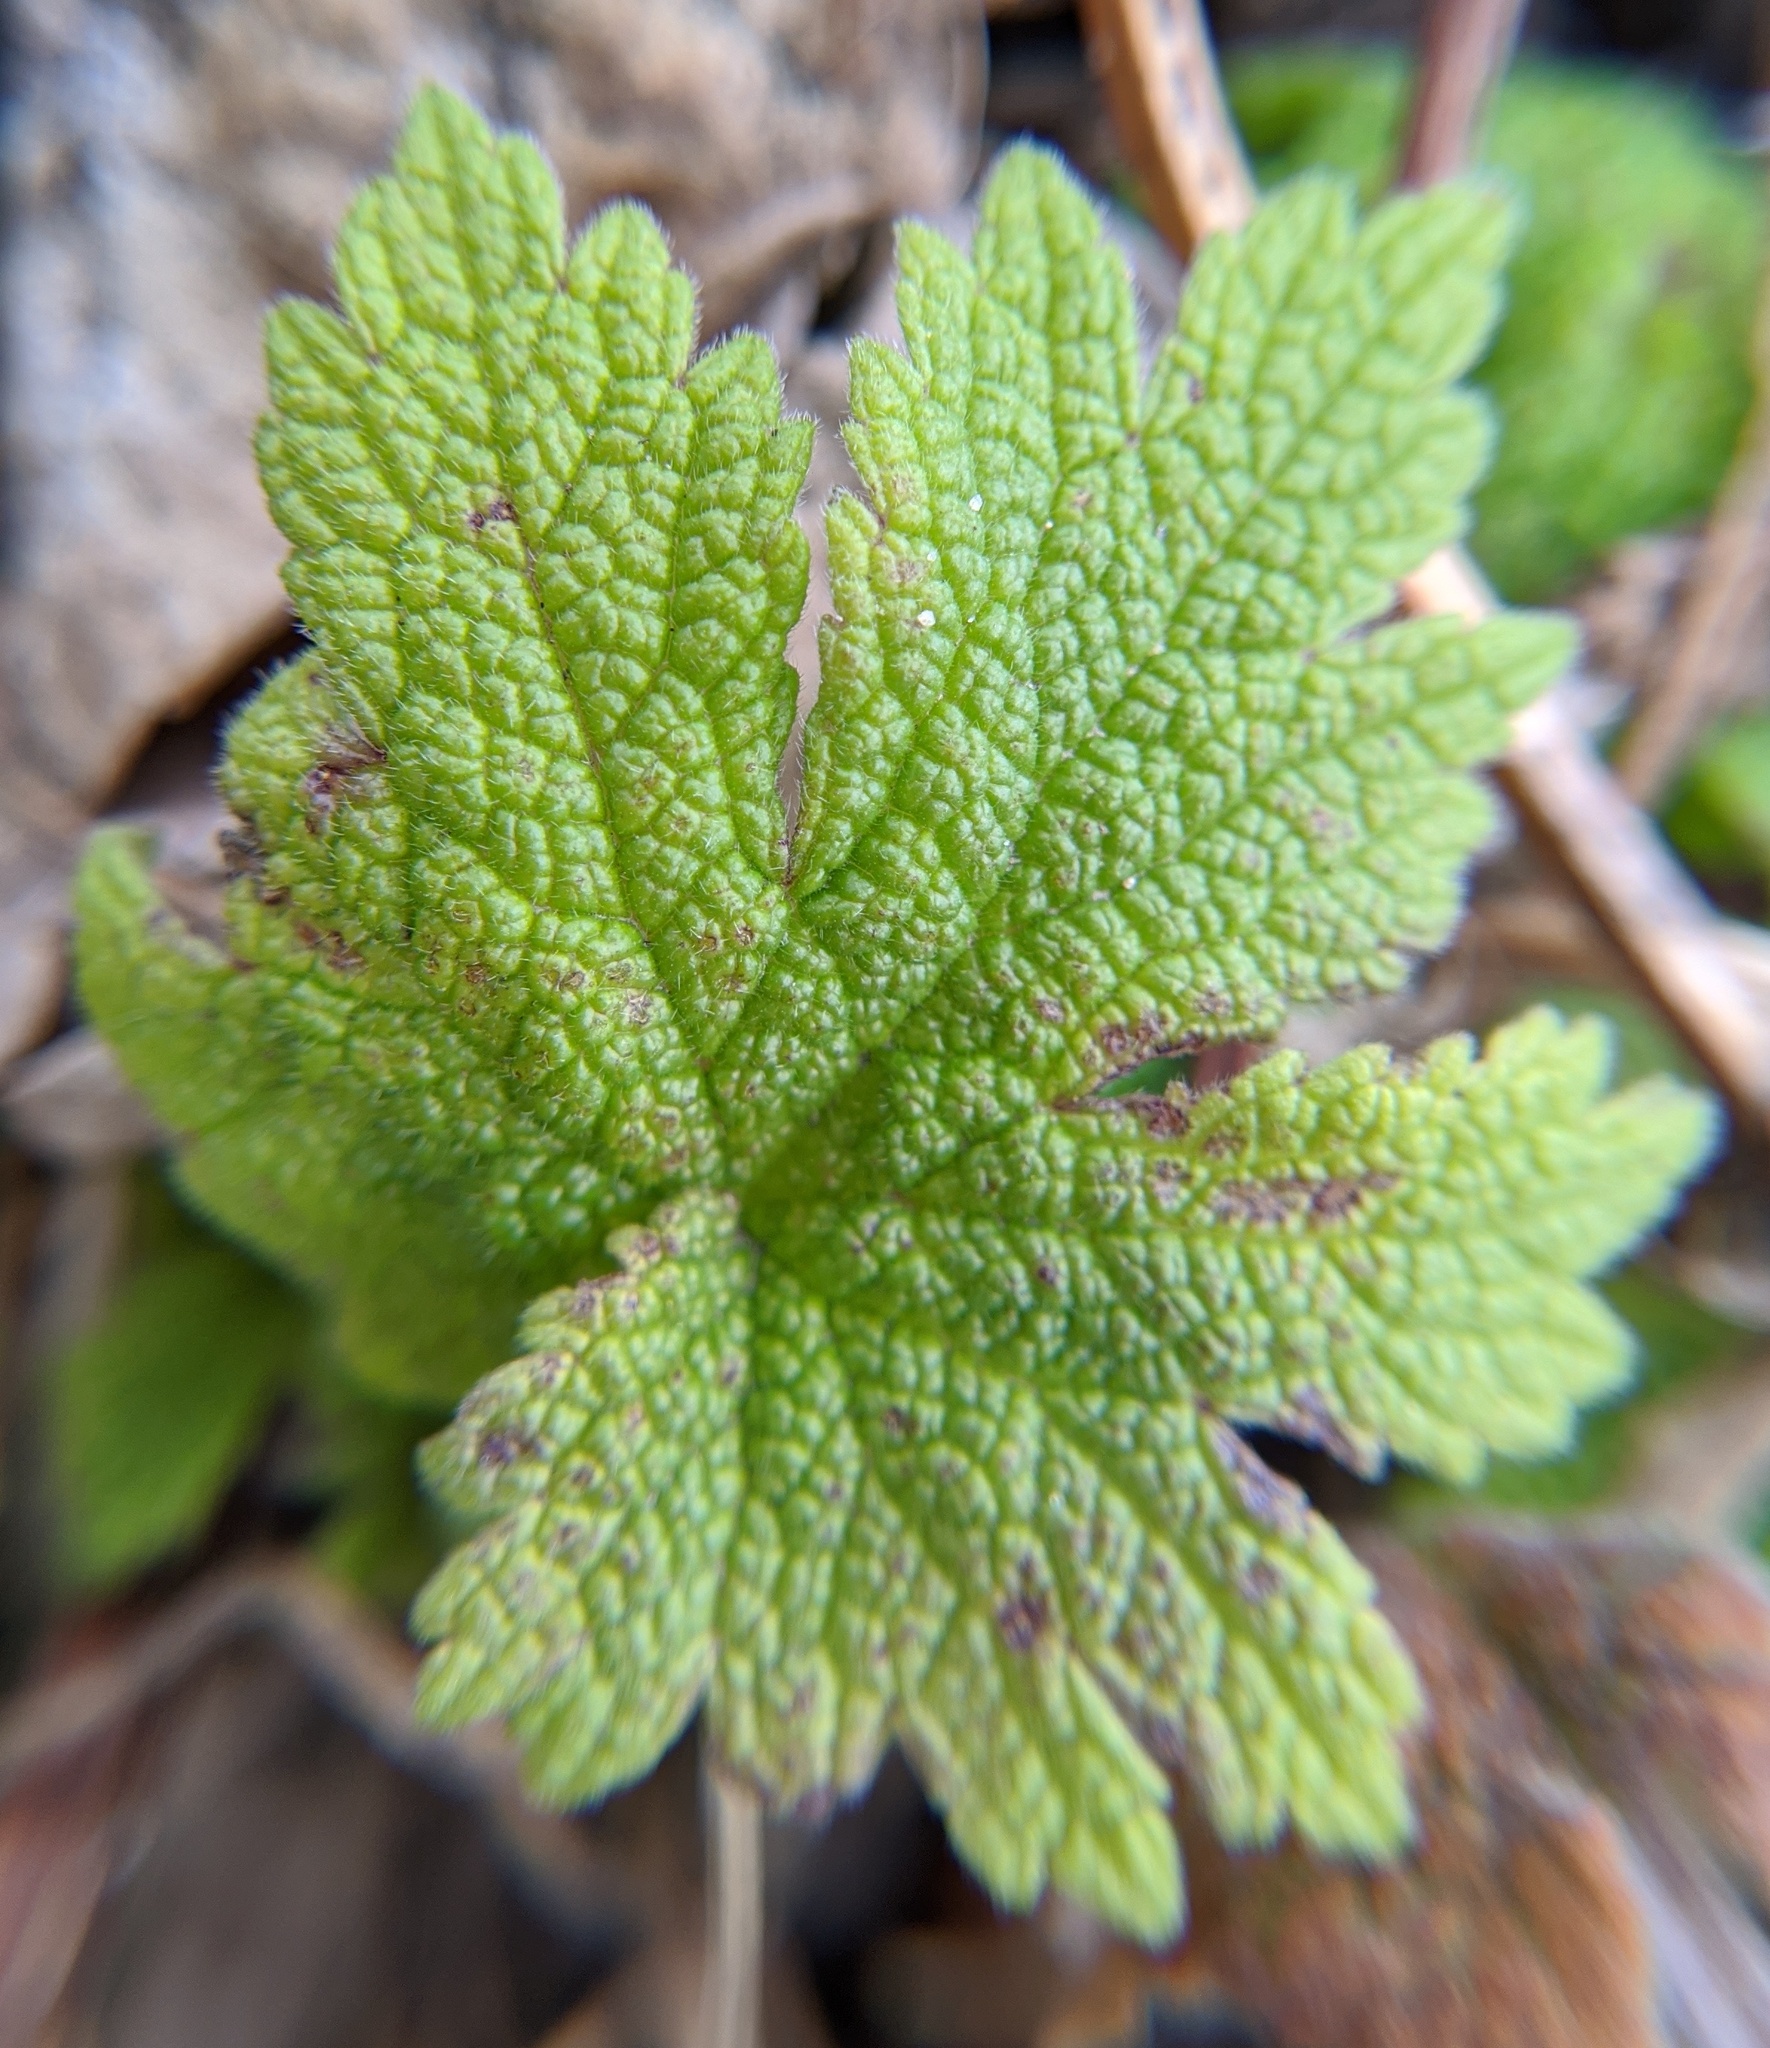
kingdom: Plantae
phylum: Tracheophyta
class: Magnoliopsida
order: Lamiales
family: Lamiaceae
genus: Leonurus
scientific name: Leonurus cardiaca
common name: Motherwort
